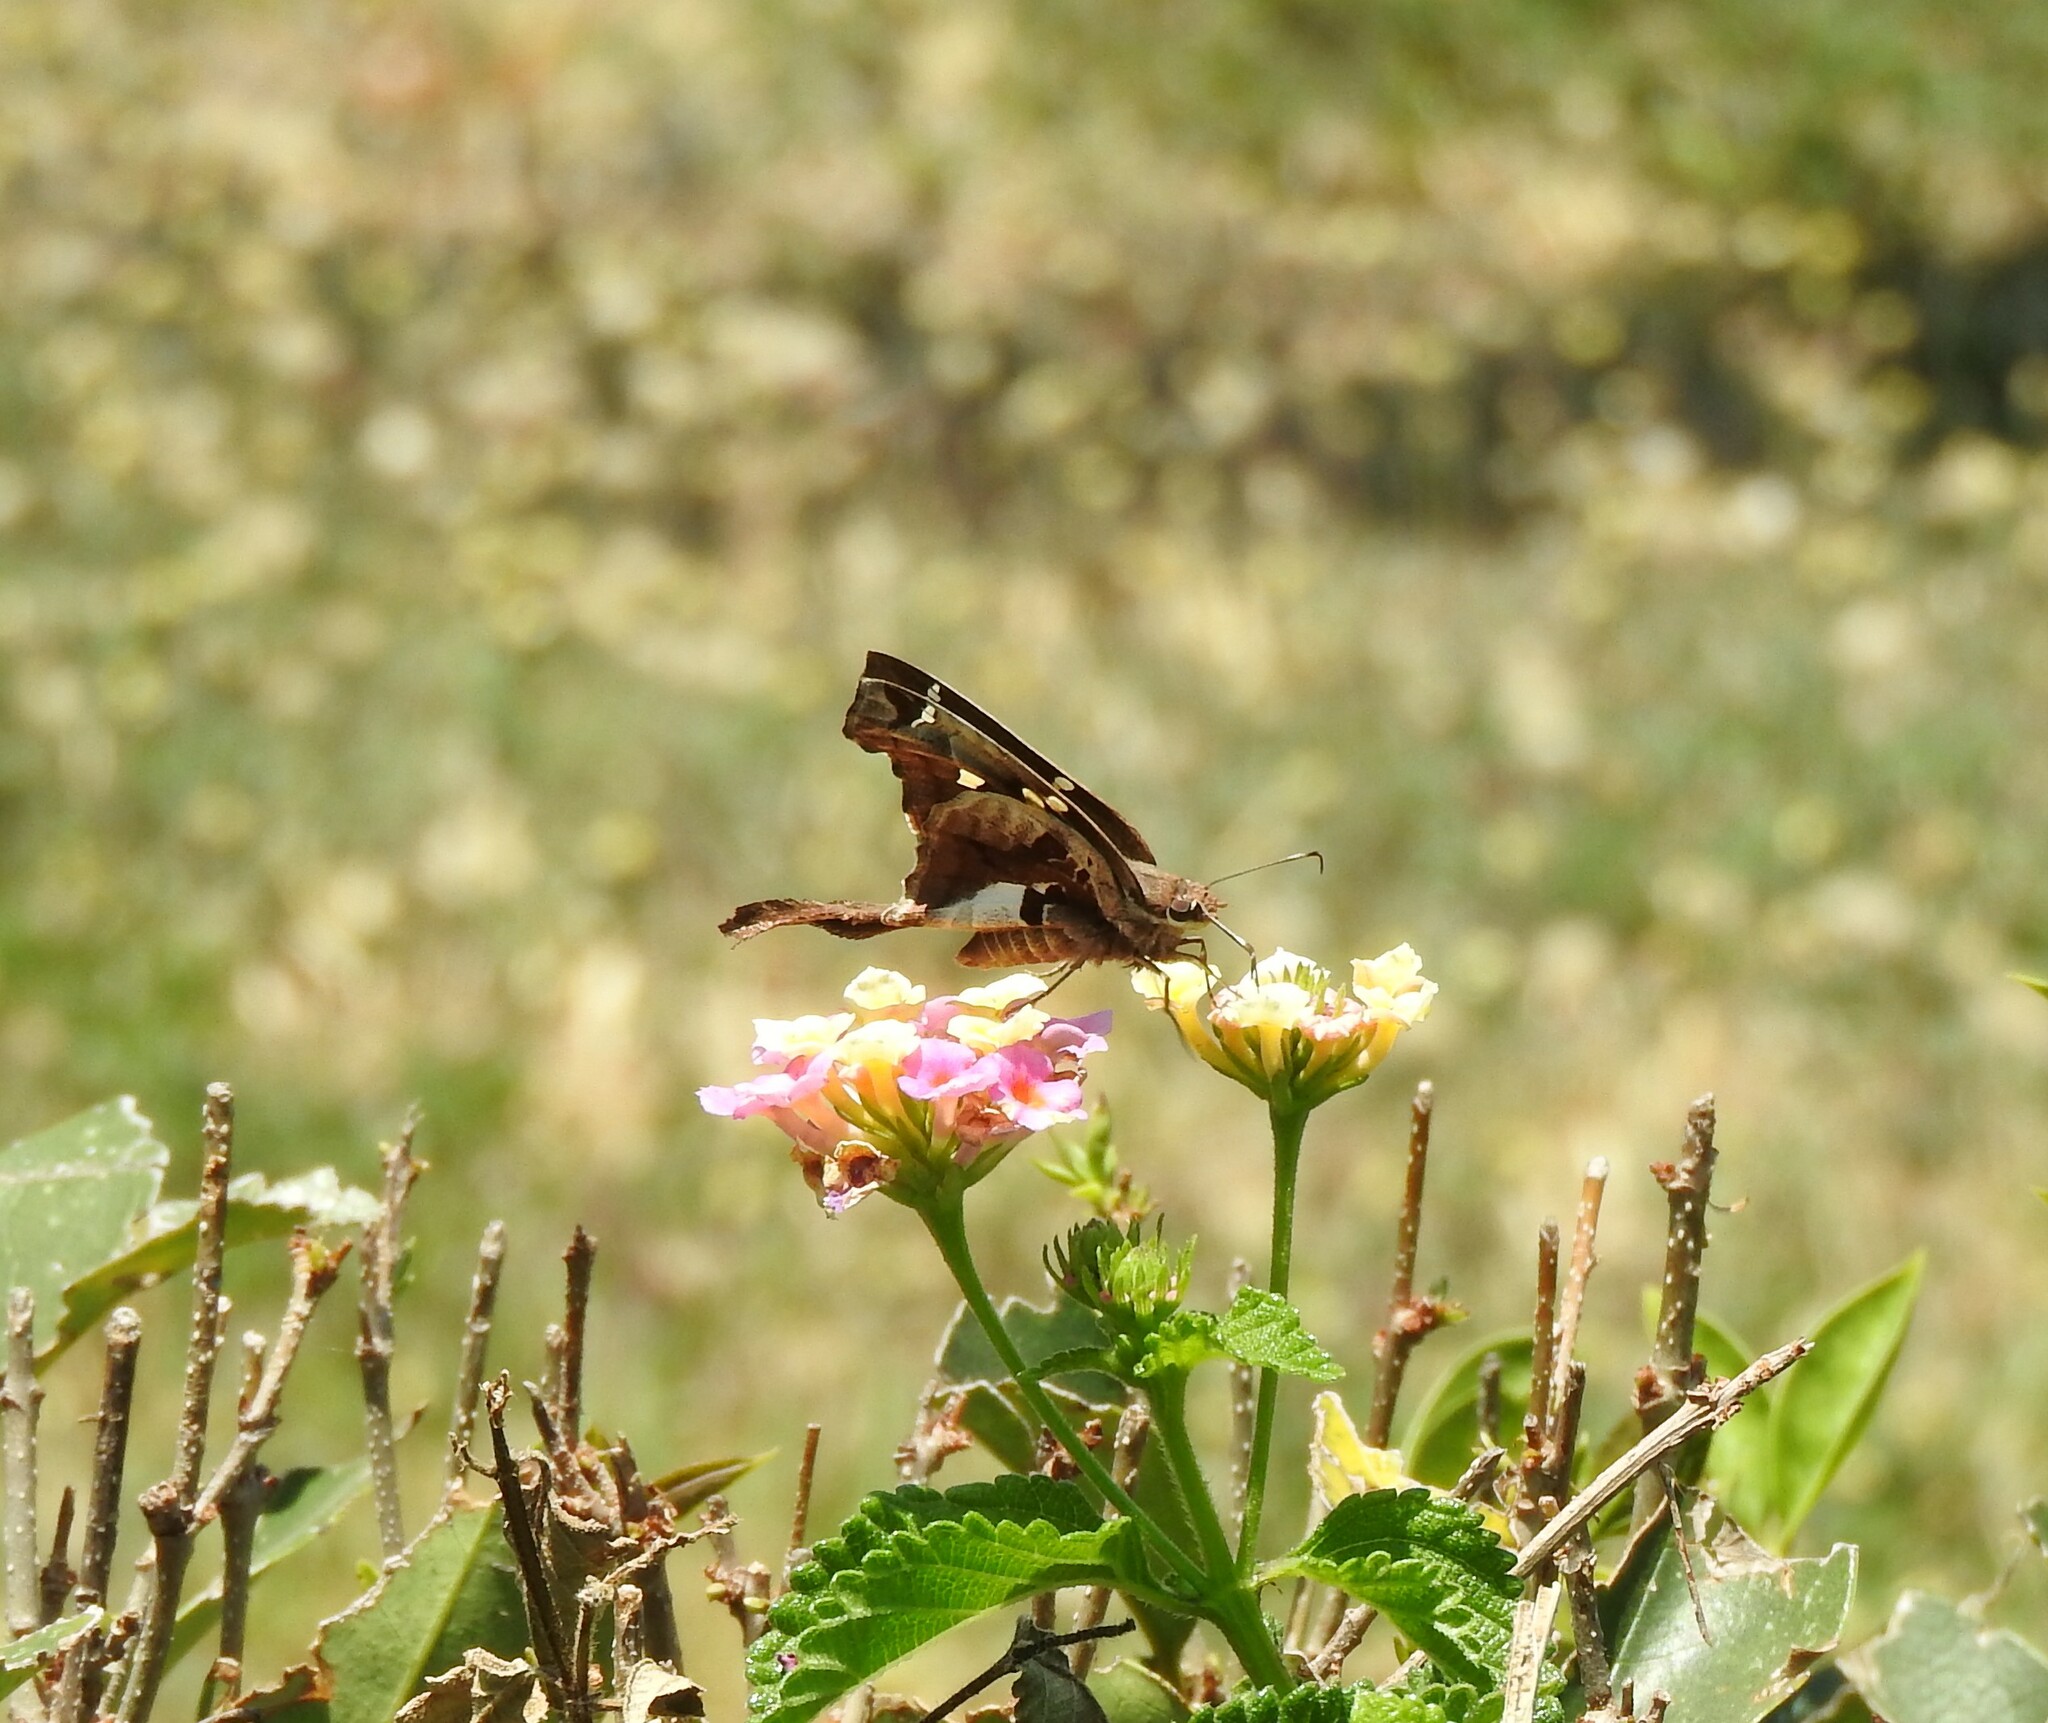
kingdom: Animalia
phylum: Arthropoda
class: Insecta
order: Lepidoptera
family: Hesperiidae
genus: Chioides
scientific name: Chioides zilpa
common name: Zilpa longtail
